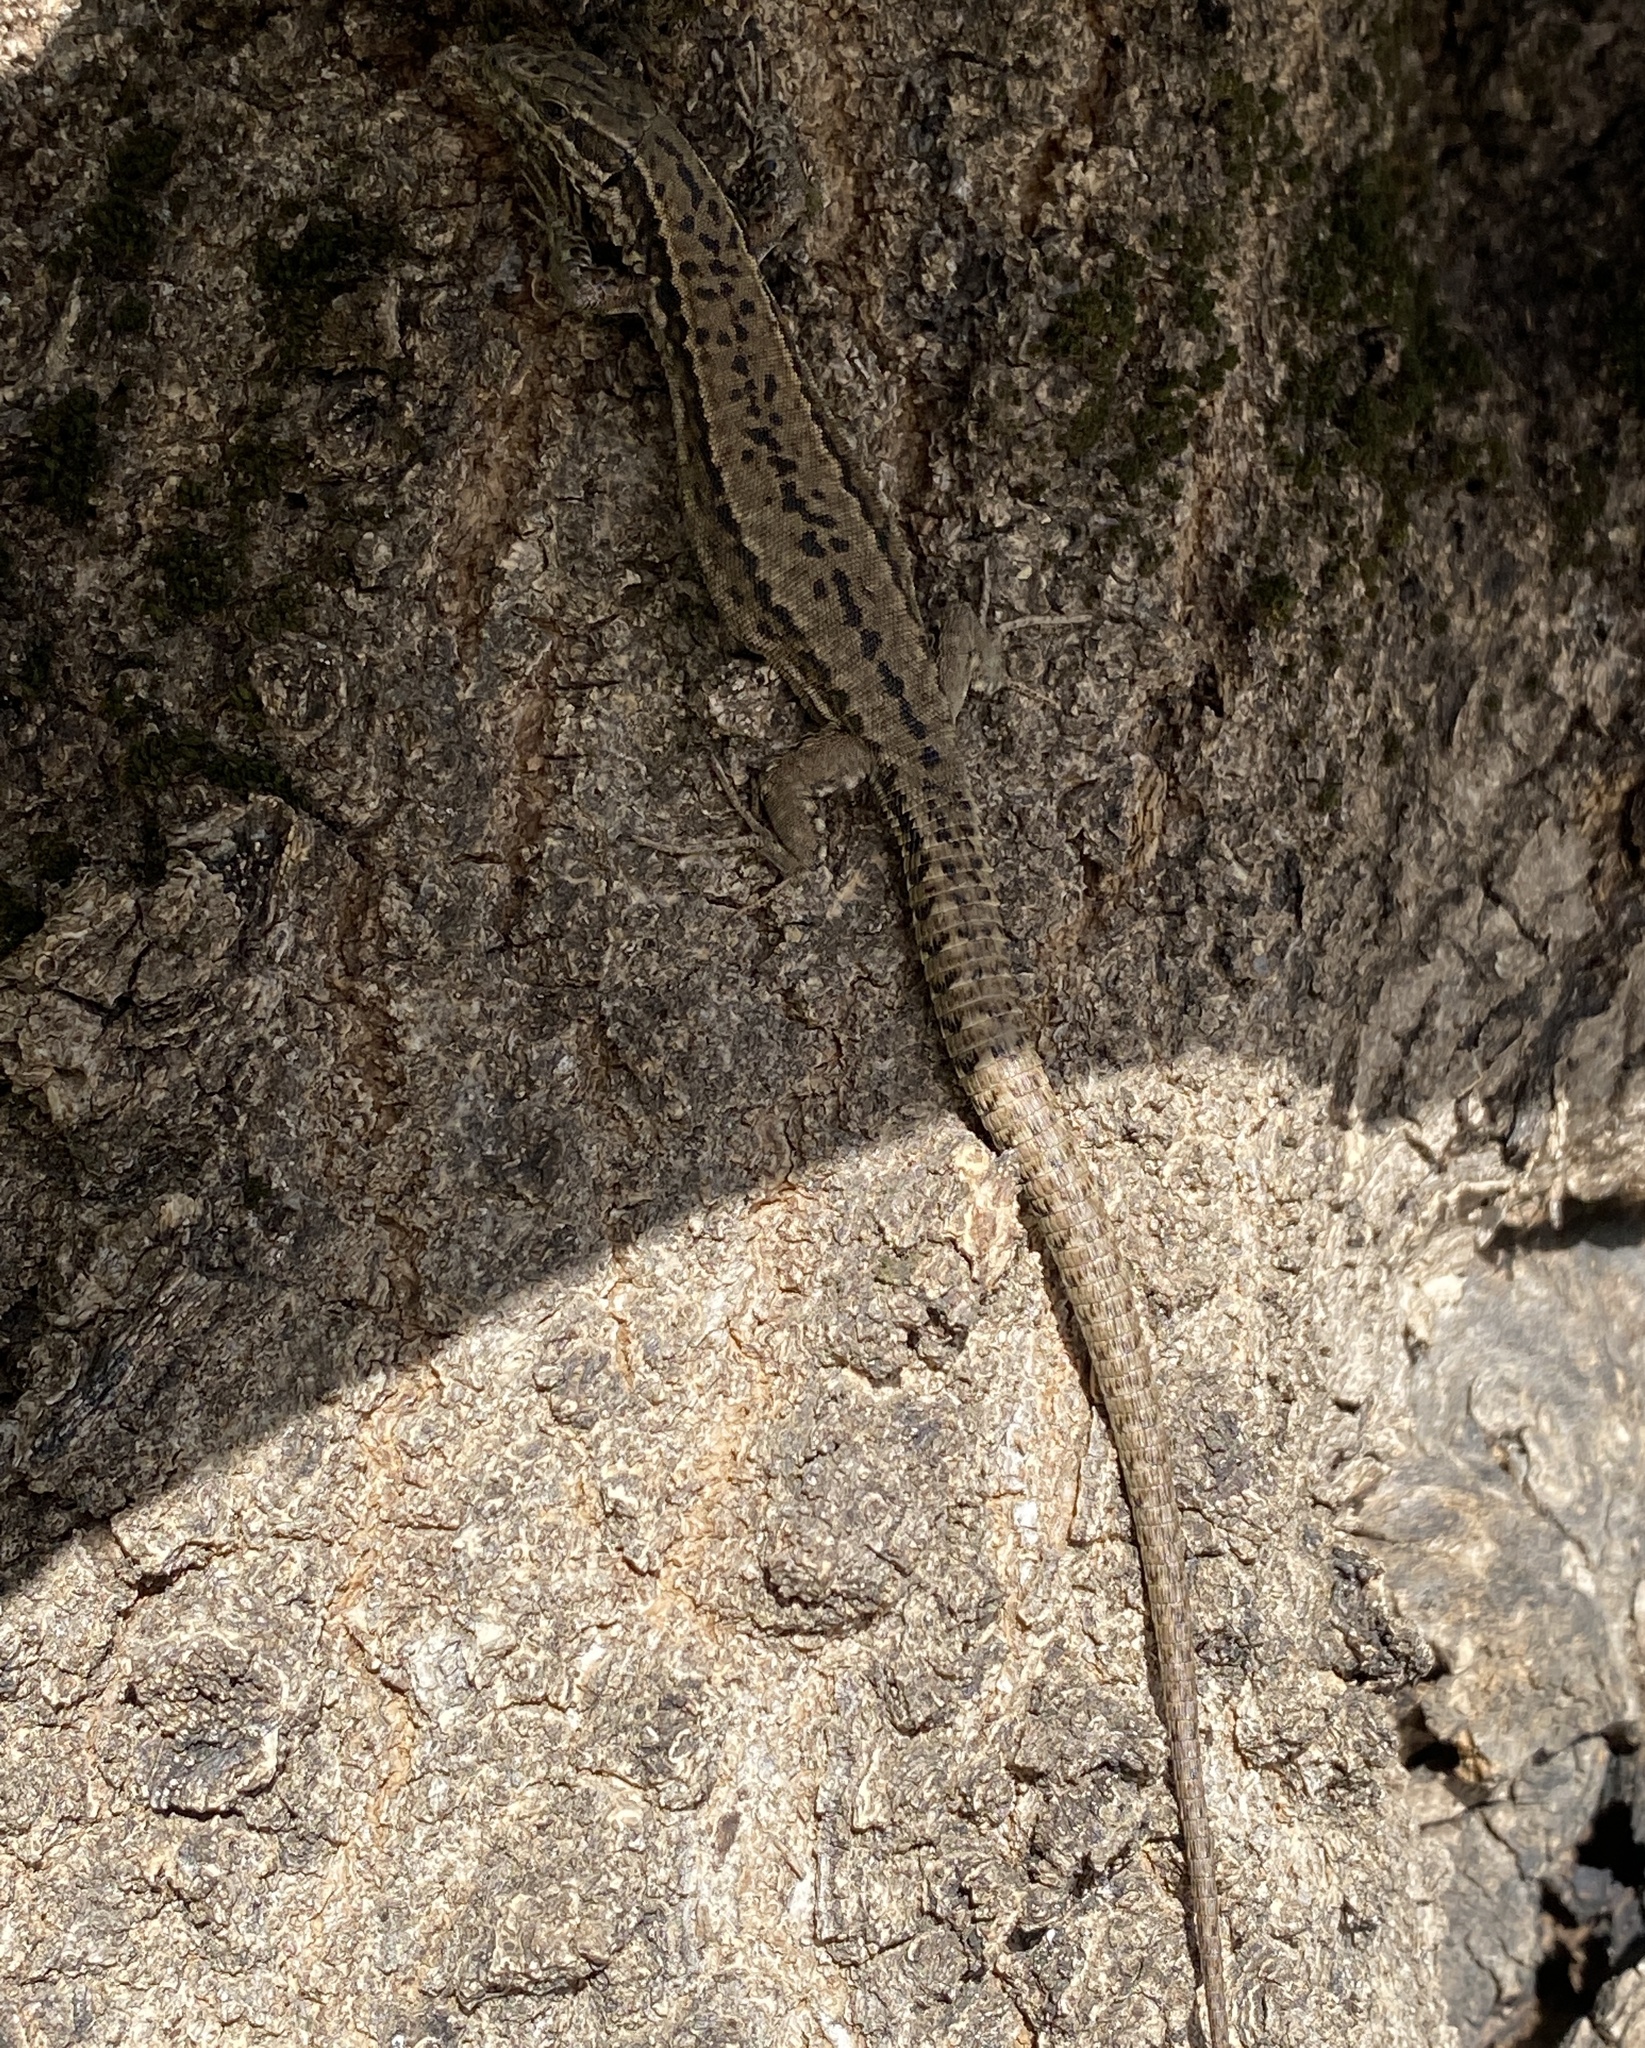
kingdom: Animalia
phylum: Chordata
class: Squamata
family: Lacertidae
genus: Podarcis
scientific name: Podarcis muralis
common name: Common wall lizard
